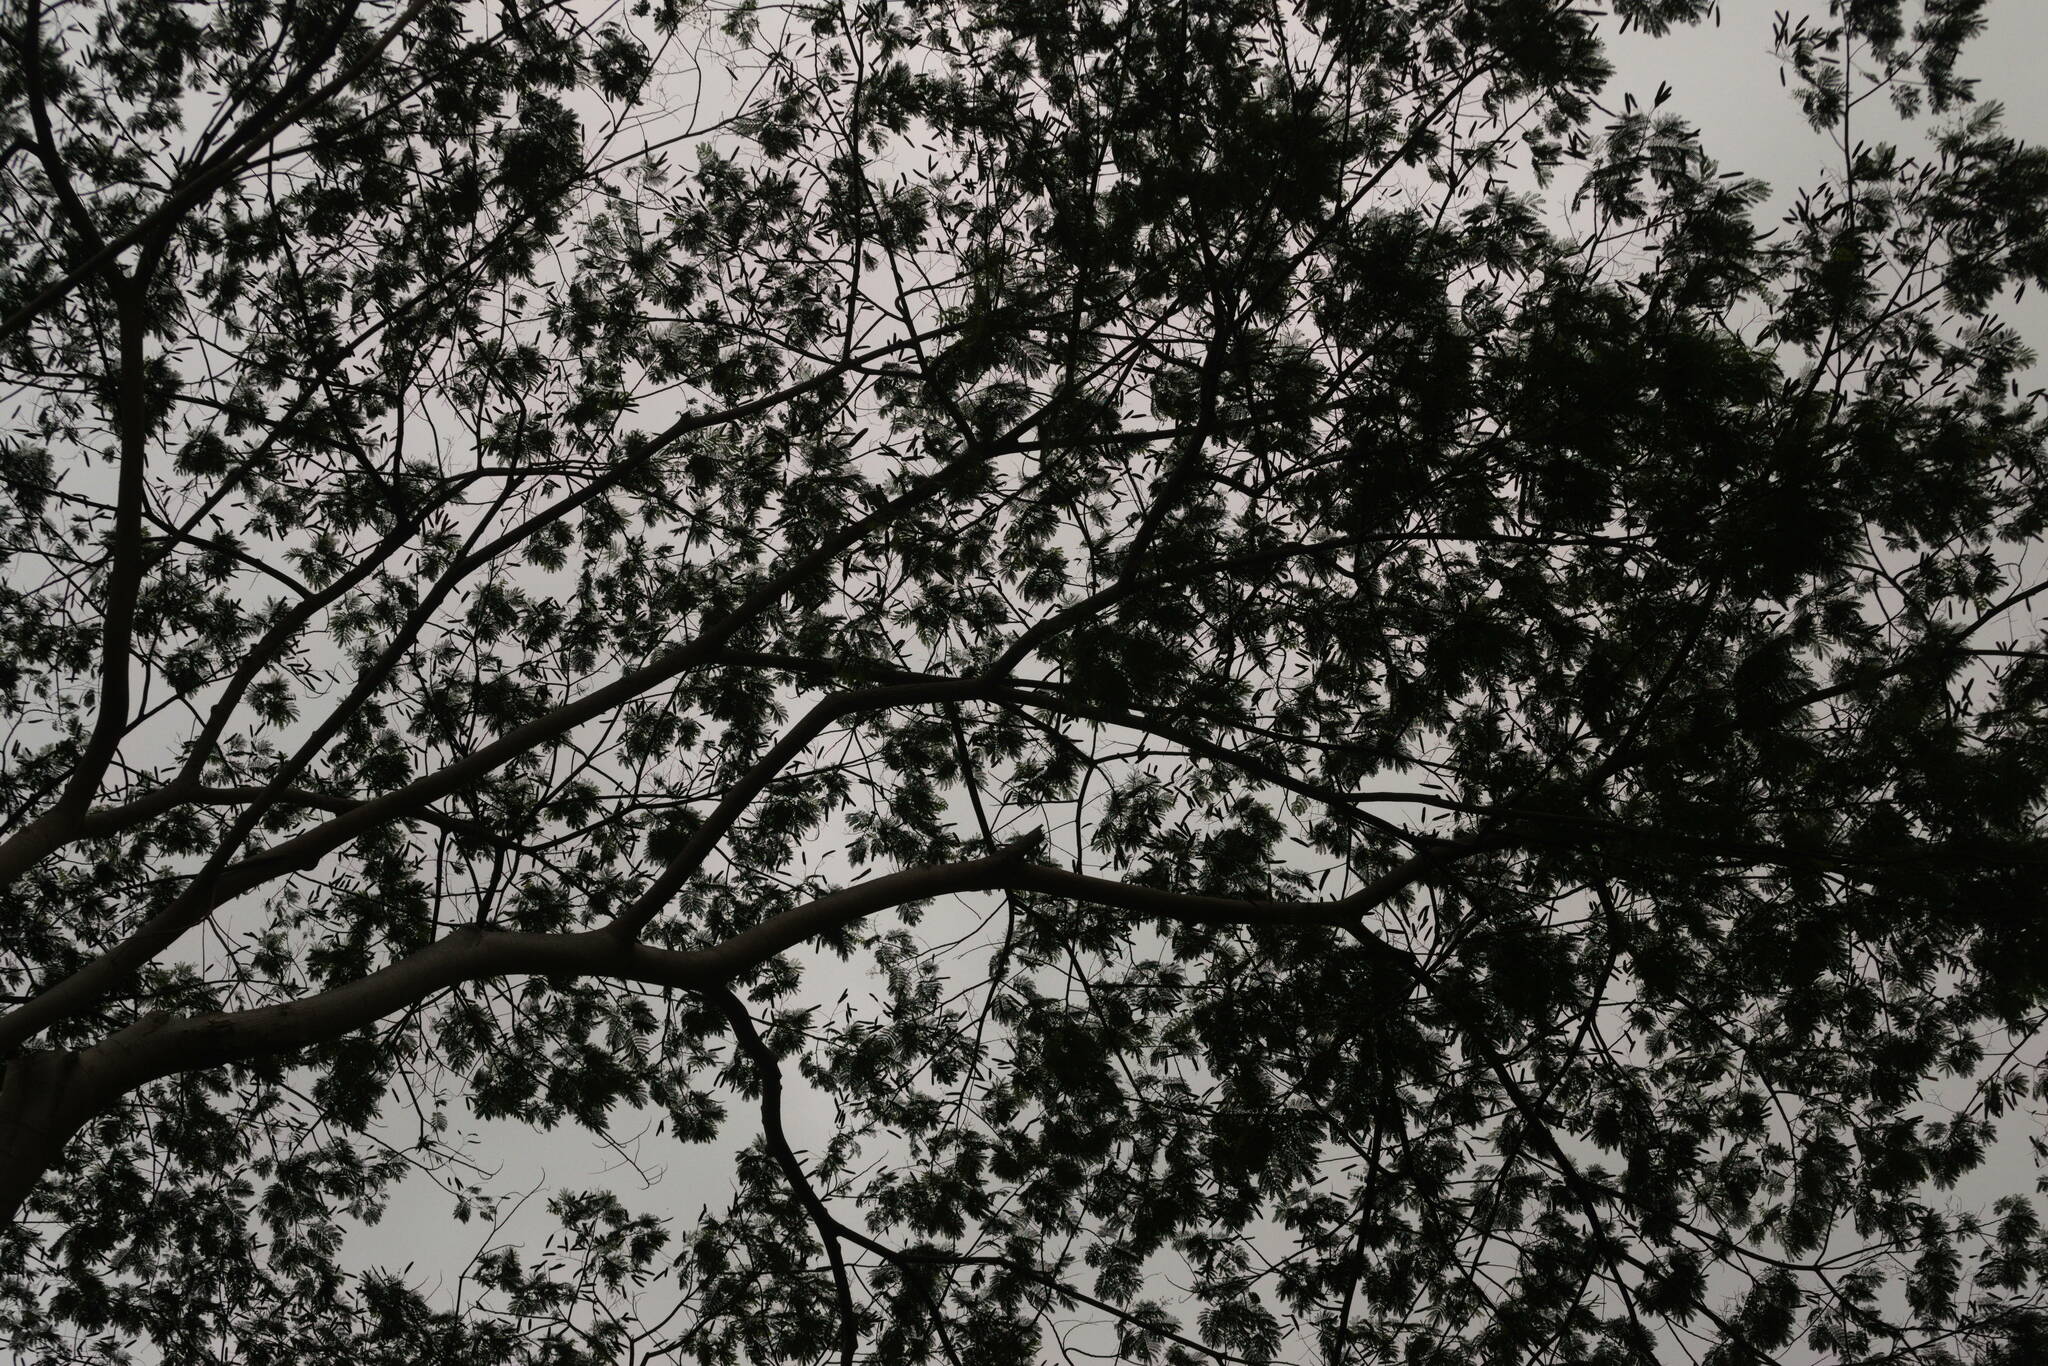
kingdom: Plantae
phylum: Tracheophyta
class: Magnoliopsida
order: Fabales
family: Fabaceae
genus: Falcataria
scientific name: Falcataria falcata
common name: Moluccan albizia
